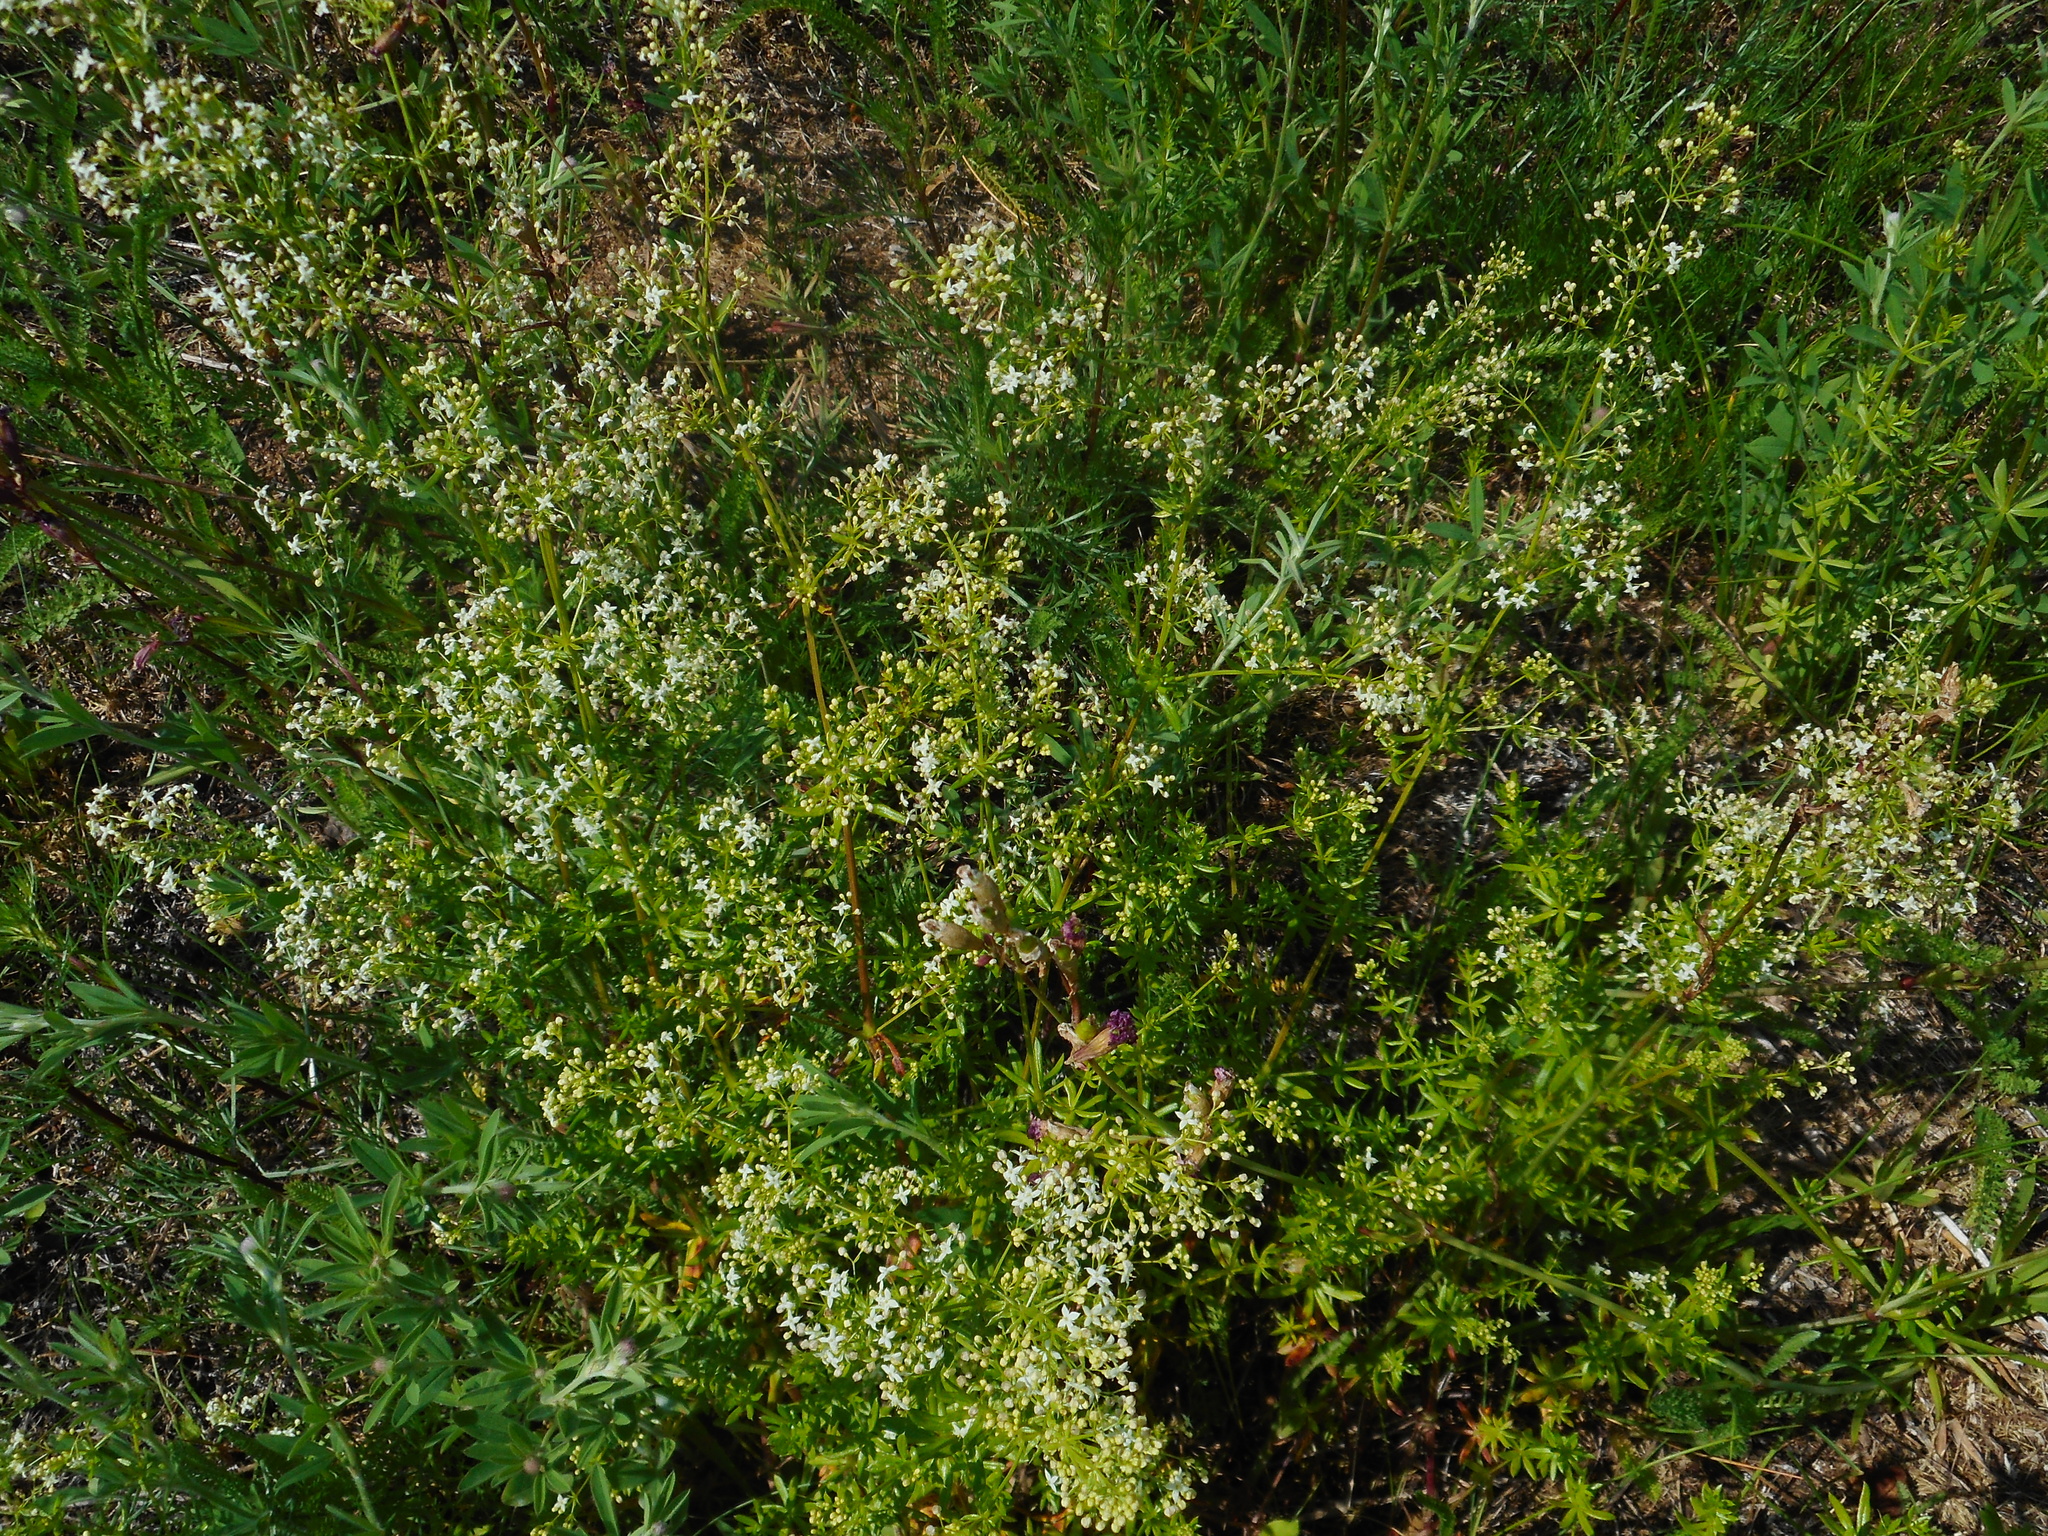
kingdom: Plantae
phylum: Tracheophyta
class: Magnoliopsida
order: Gentianales
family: Rubiaceae
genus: Galium
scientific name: Galium mollugo
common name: Hedge bedstraw
